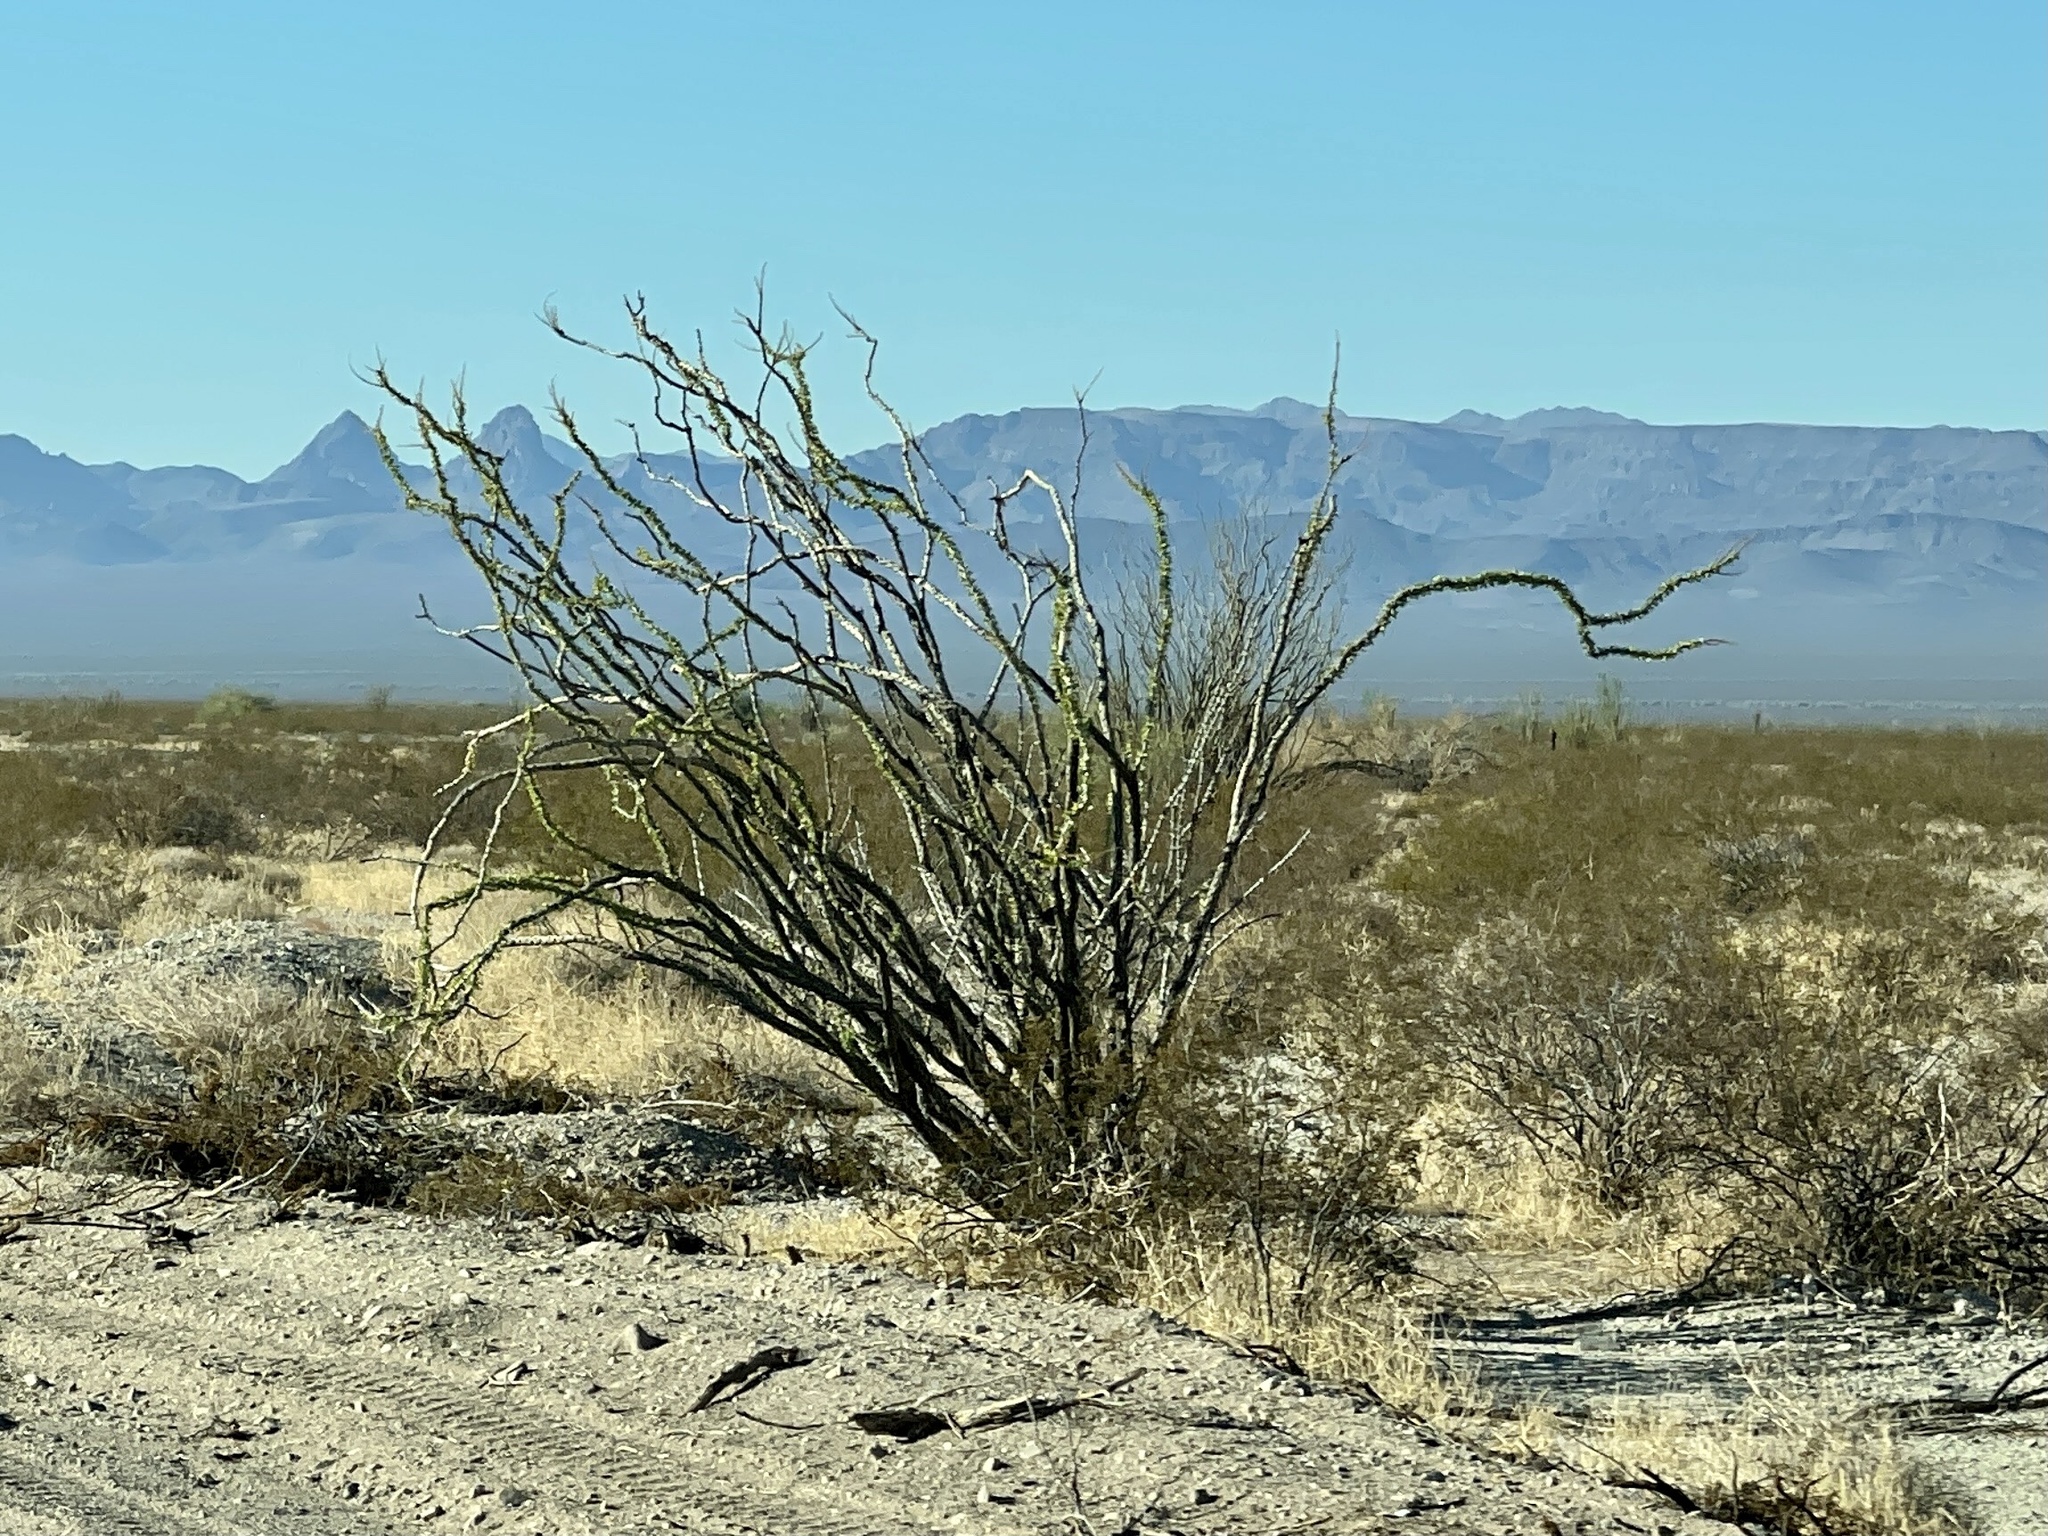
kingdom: Plantae
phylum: Tracheophyta
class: Magnoliopsida
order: Ericales
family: Fouquieriaceae
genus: Fouquieria
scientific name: Fouquieria splendens
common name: Vine-cactus
